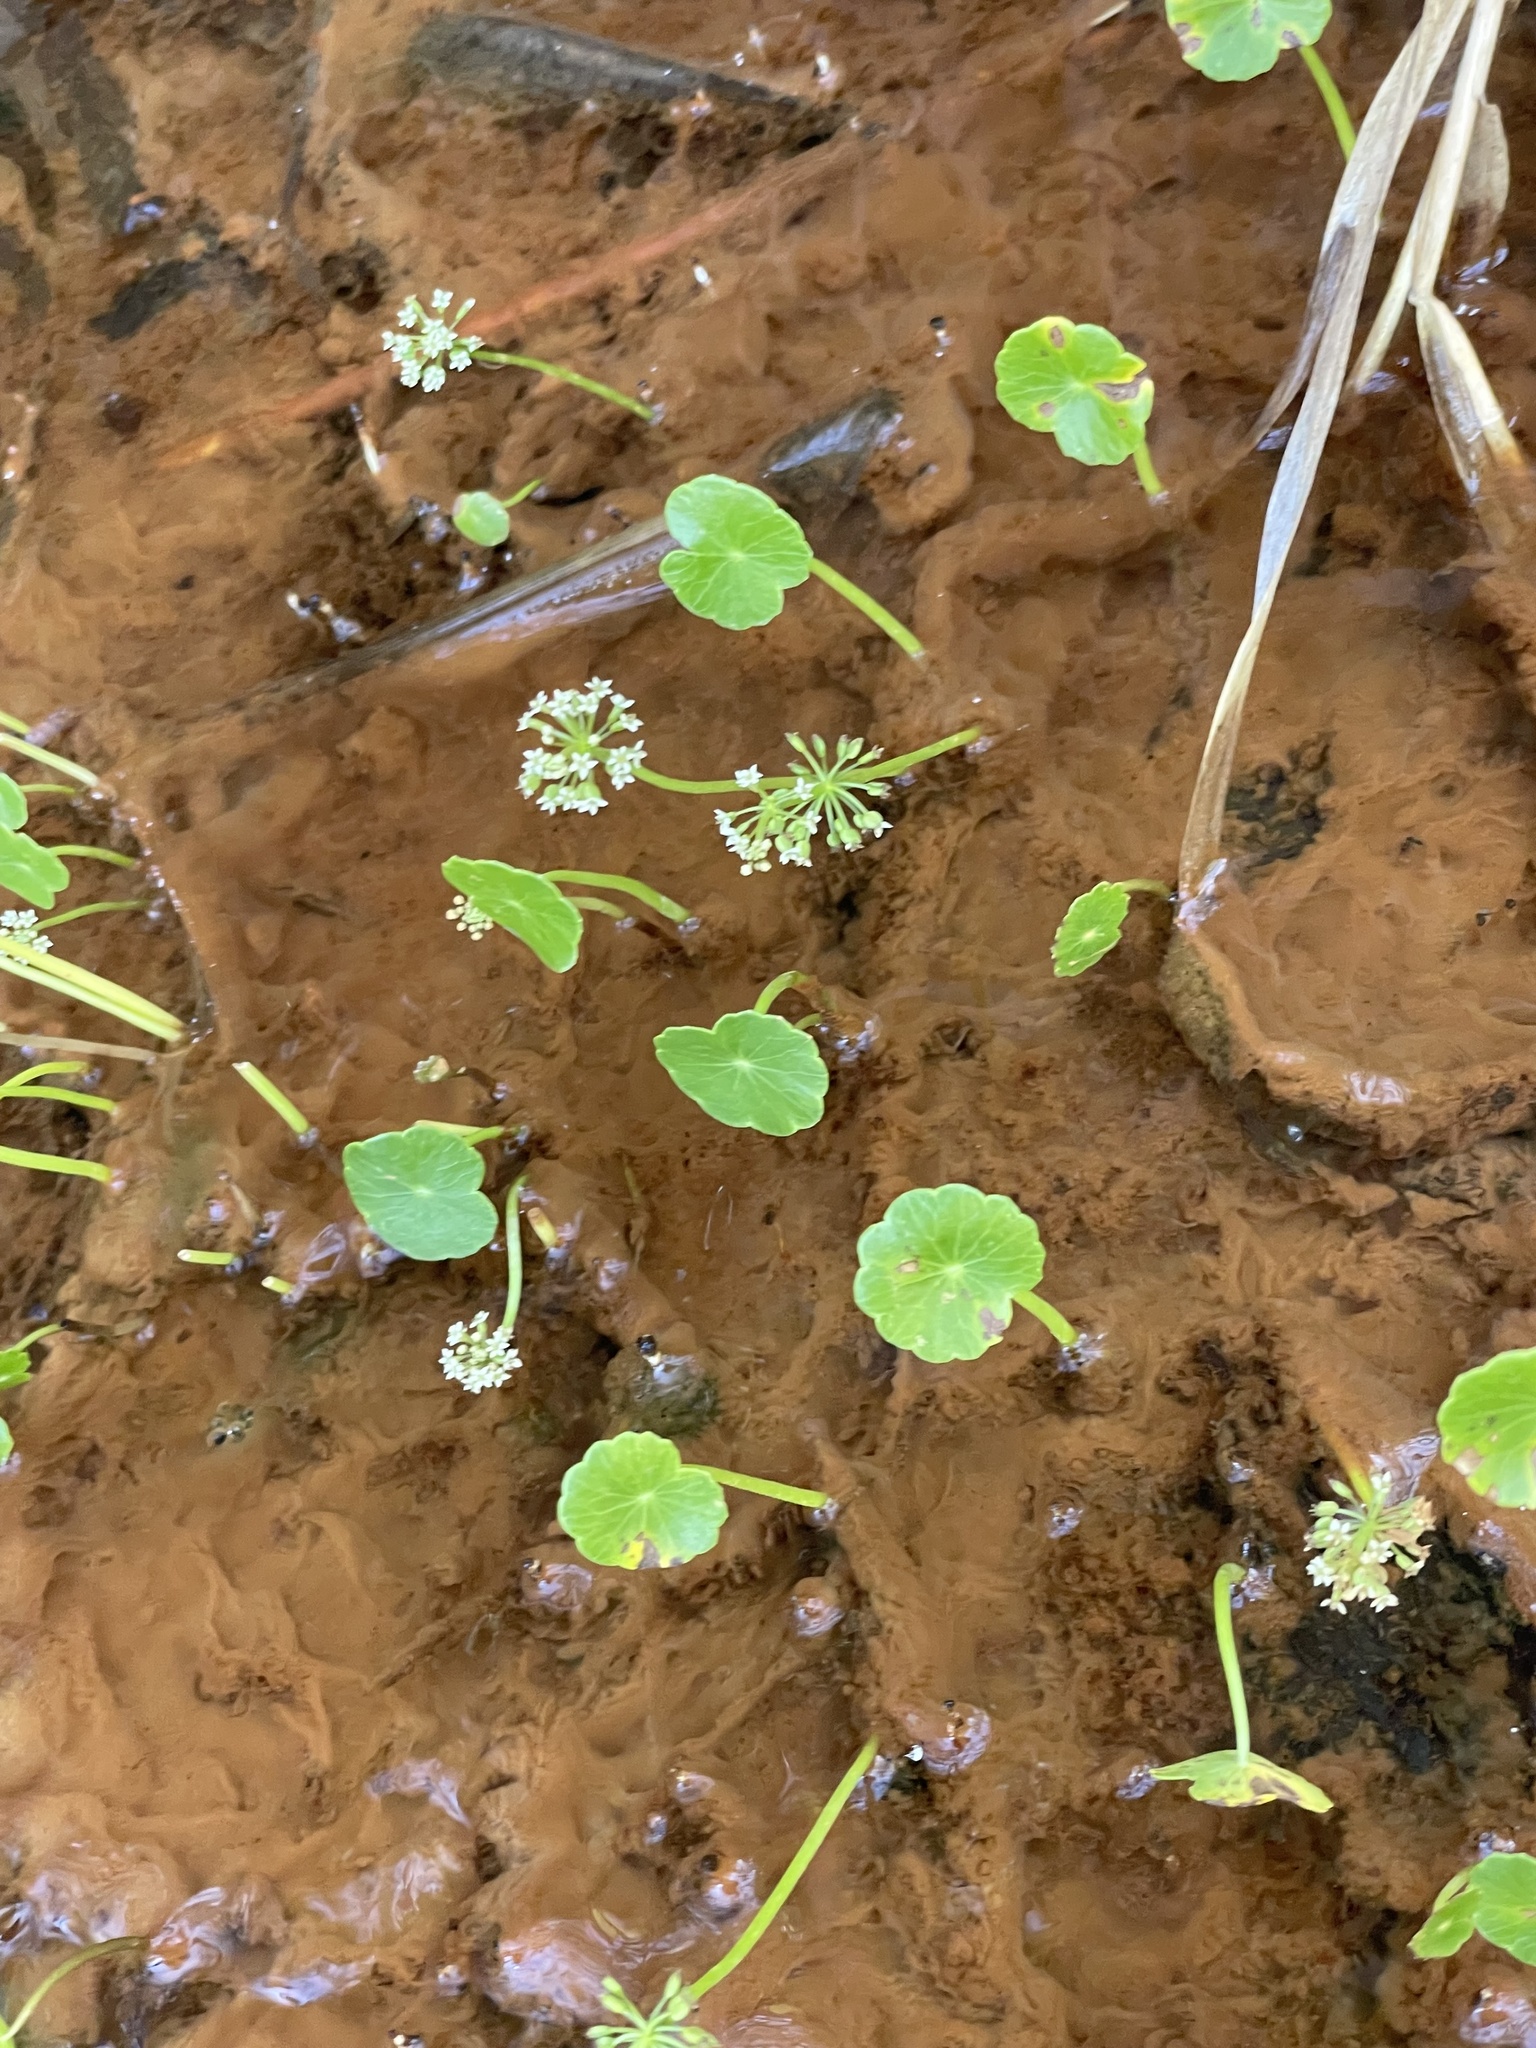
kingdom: Plantae
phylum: Tracheophyta
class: Magnoliopsida
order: Apiales
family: Araliaceae
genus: Hydrocotyle
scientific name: Hydrocotyle umbellata
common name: Water pennywort
